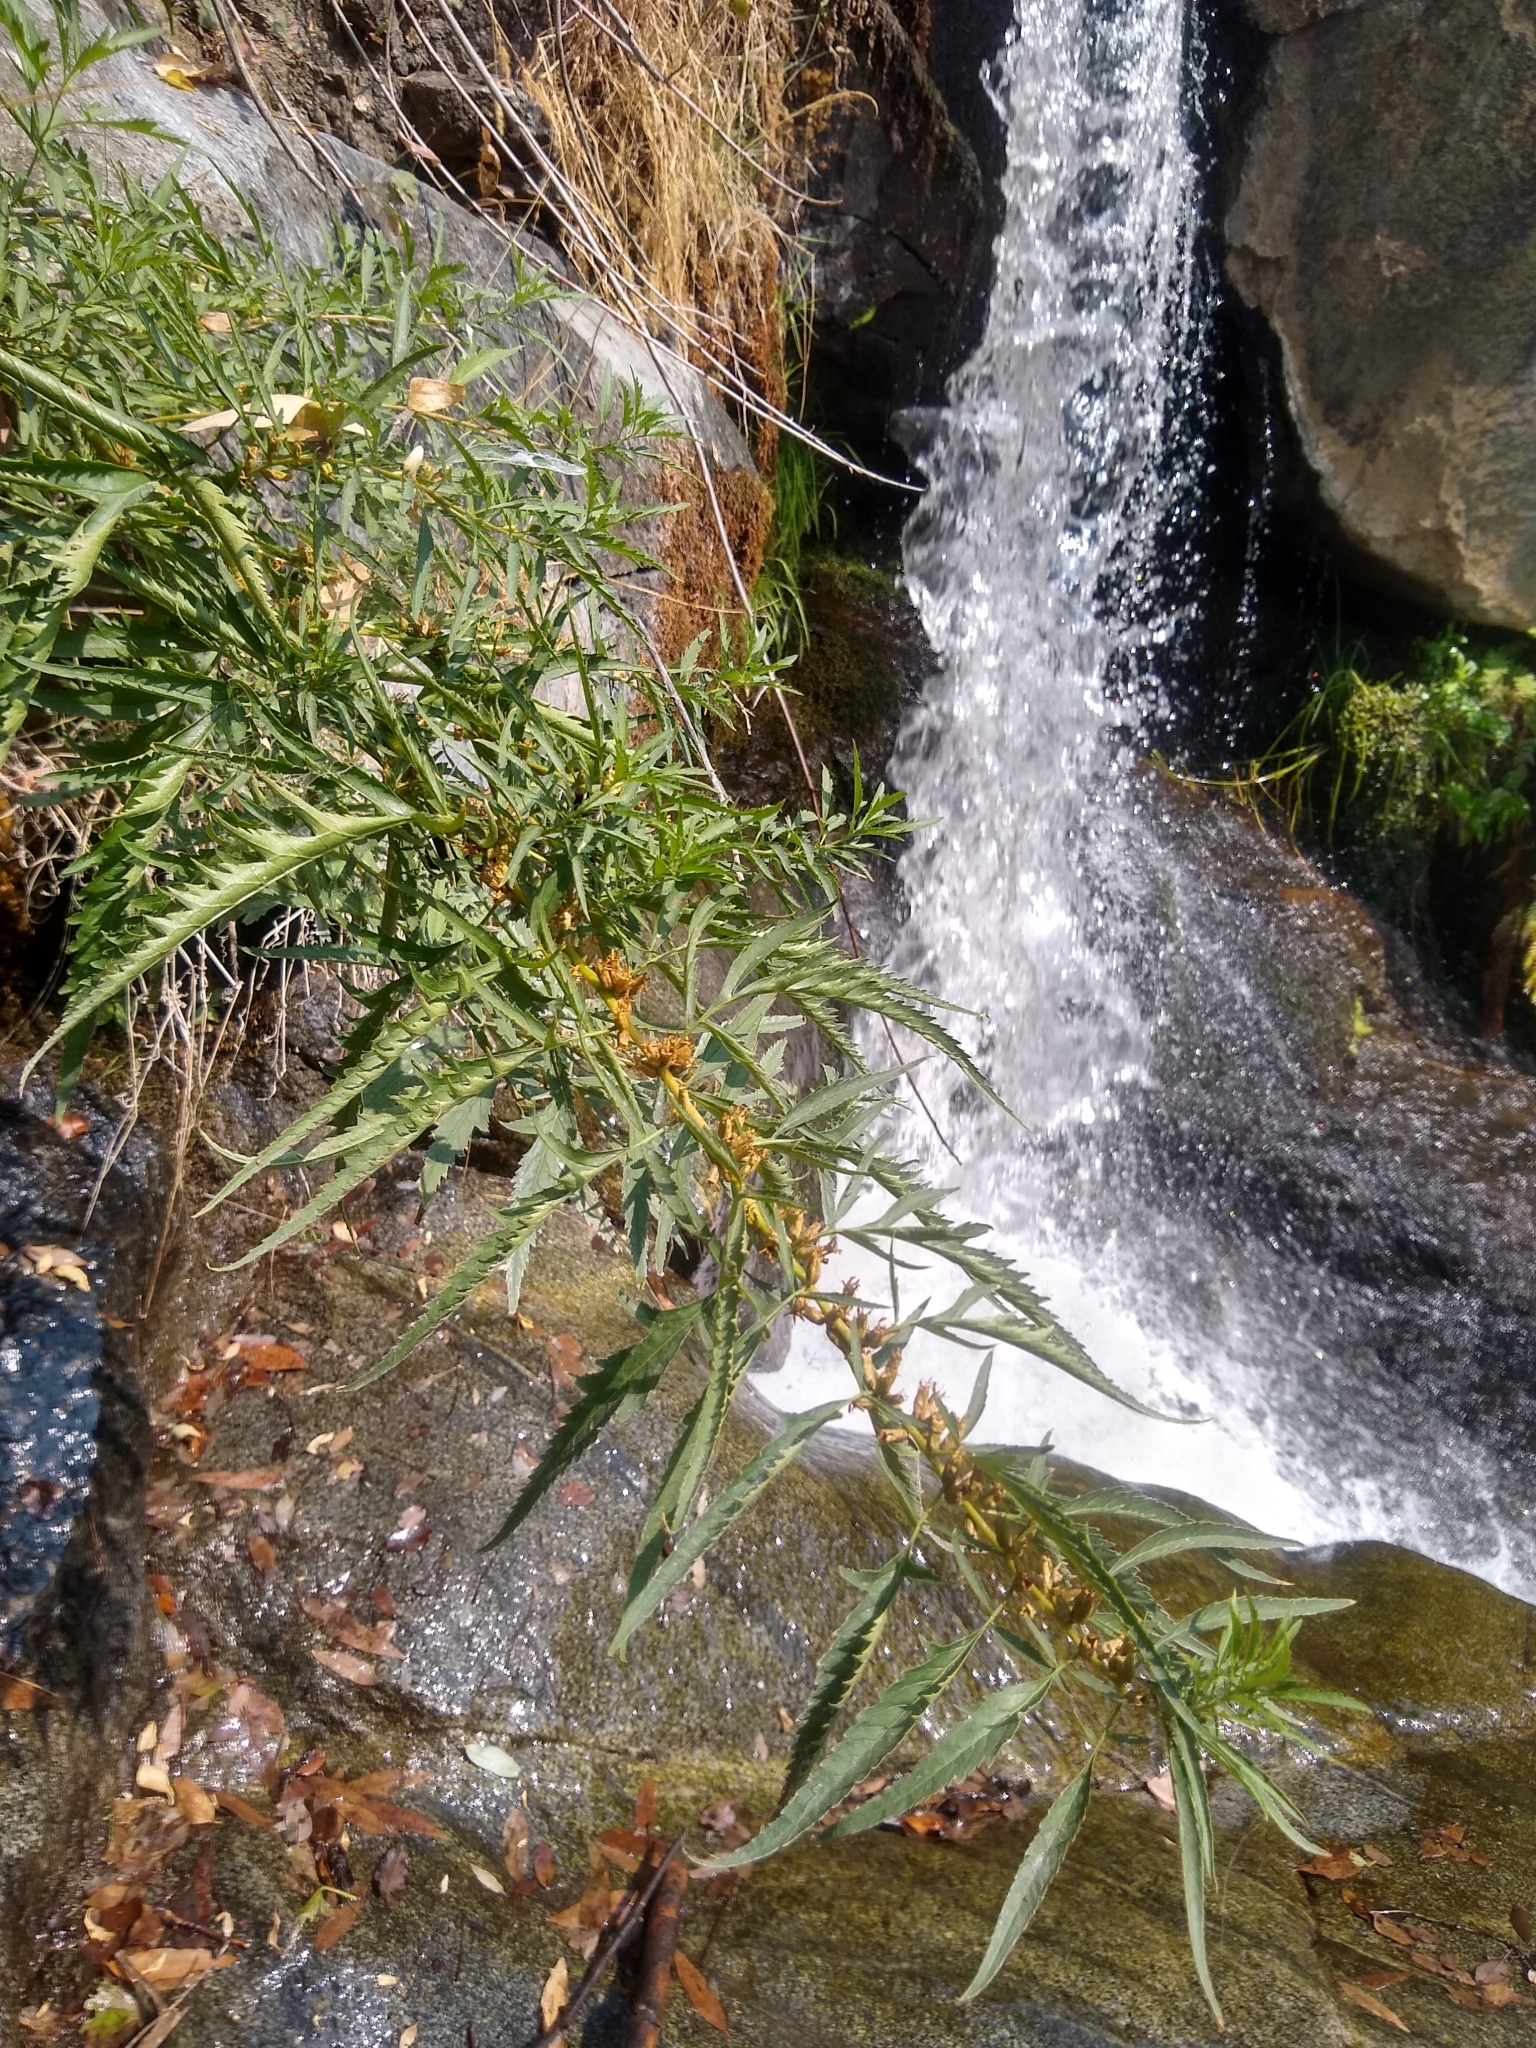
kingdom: Plantae
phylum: Tracheophyta
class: Magnoliopsida
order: Cucurbitales
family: Datiscaceae
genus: Datisca
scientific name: Datisca glomerata
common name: Durango-root
